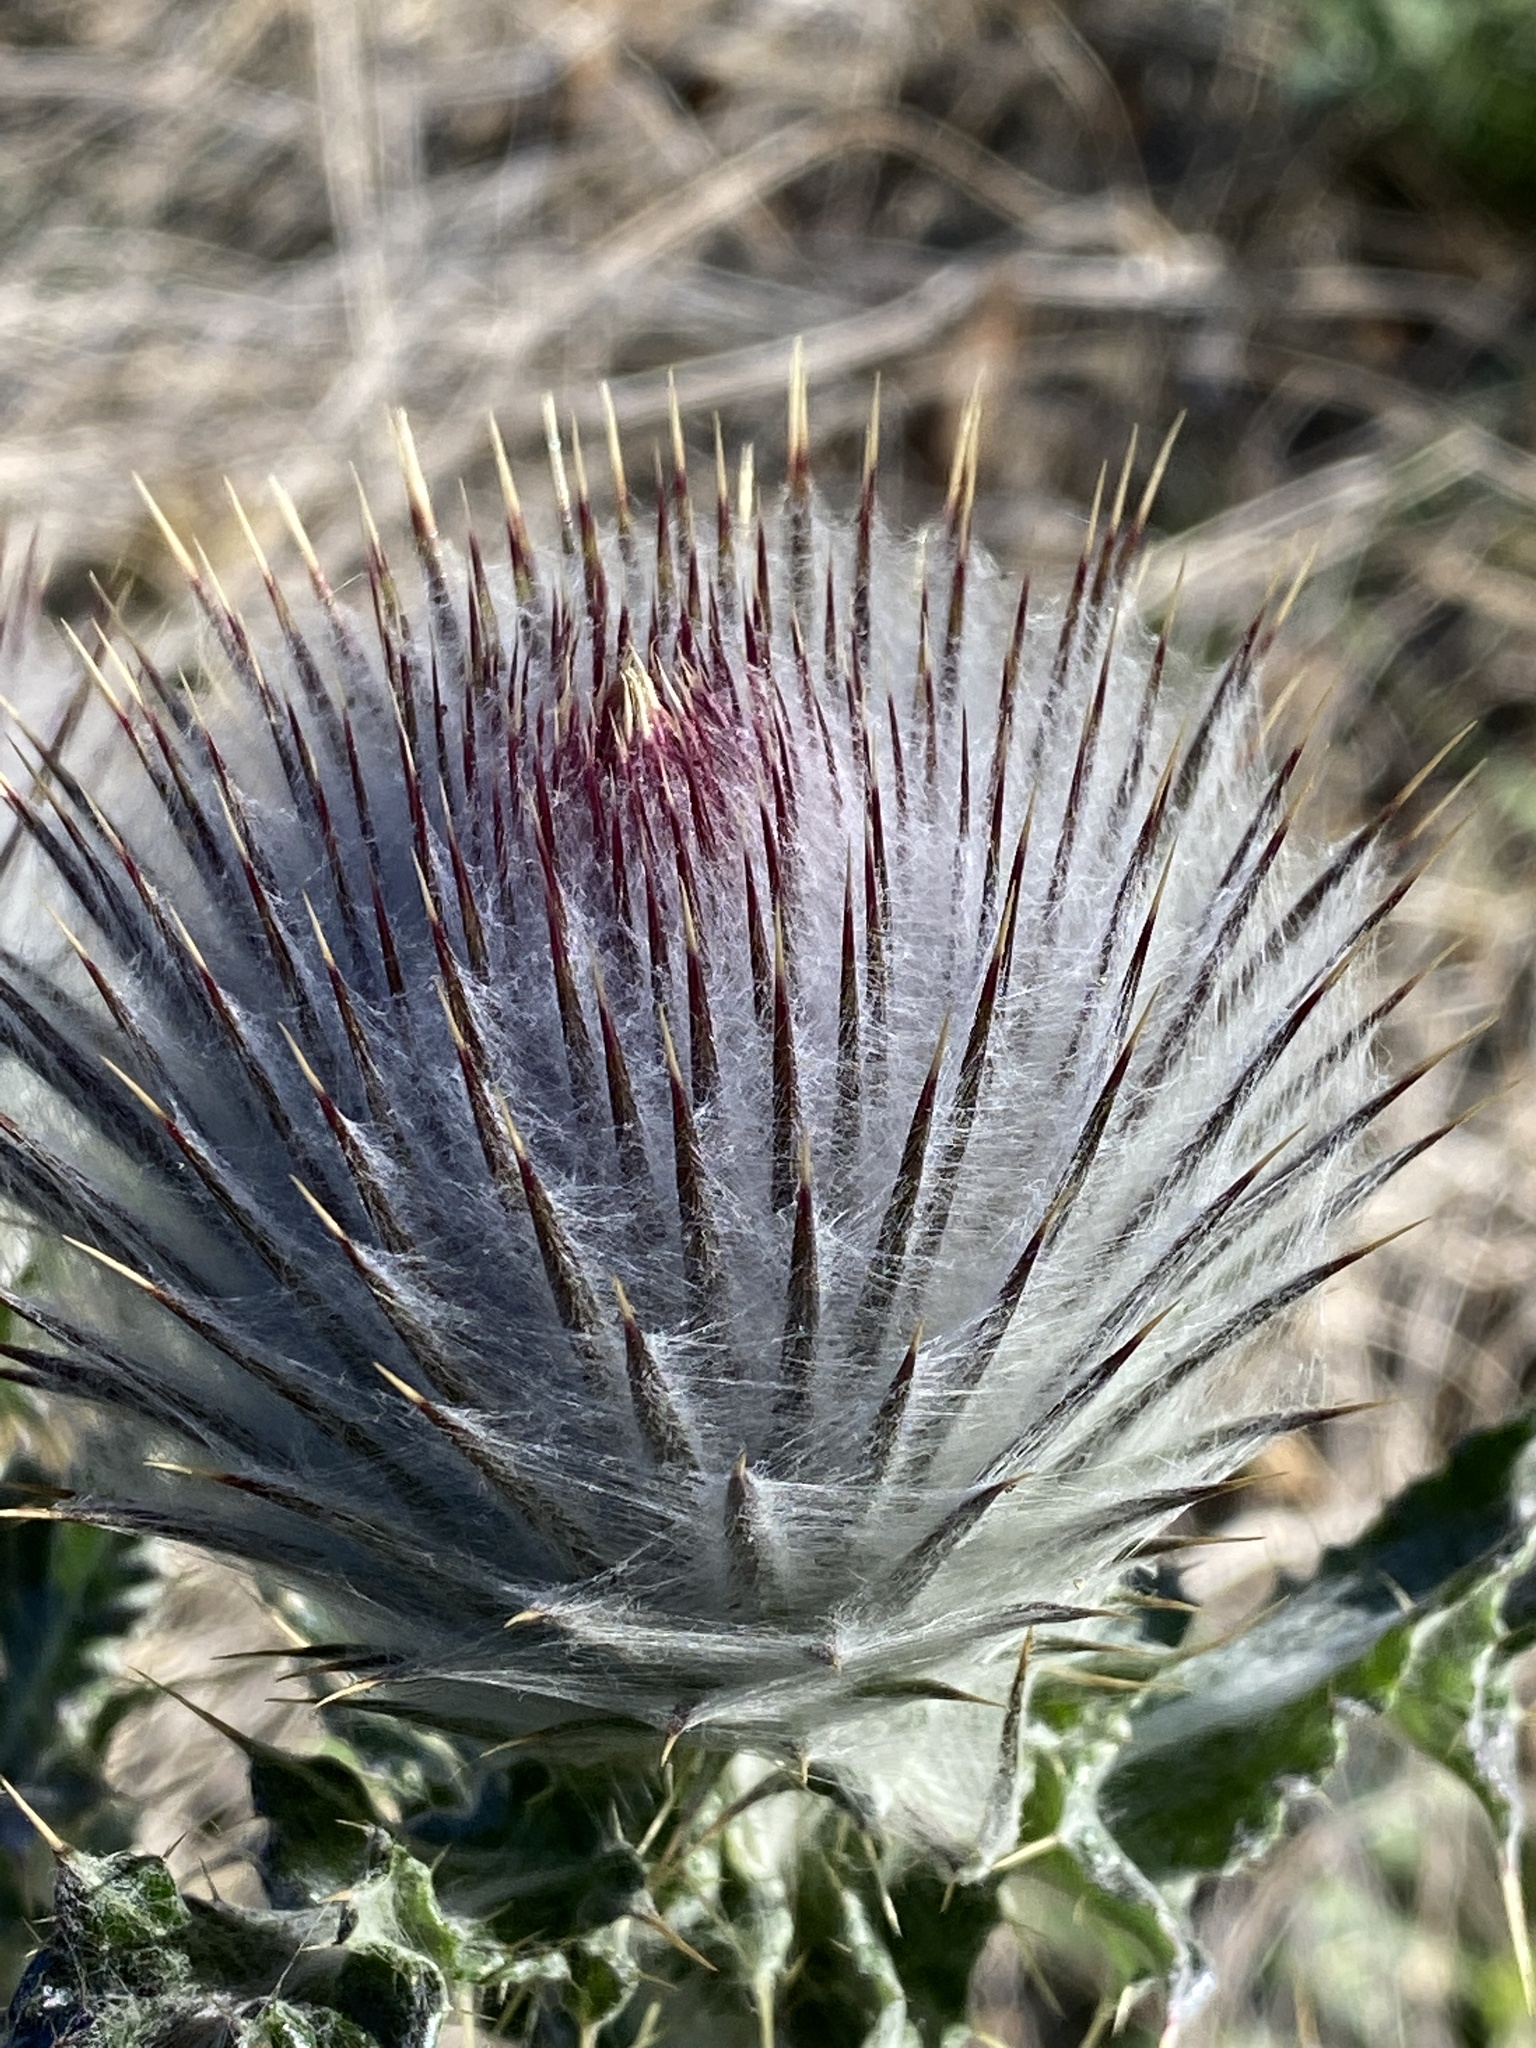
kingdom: Plantae
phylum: Tracheophyta
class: Magnoliopsida
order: Asterales
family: Asteraceae
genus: Cirsium
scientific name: Cirsium occidentale
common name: Western thistle
